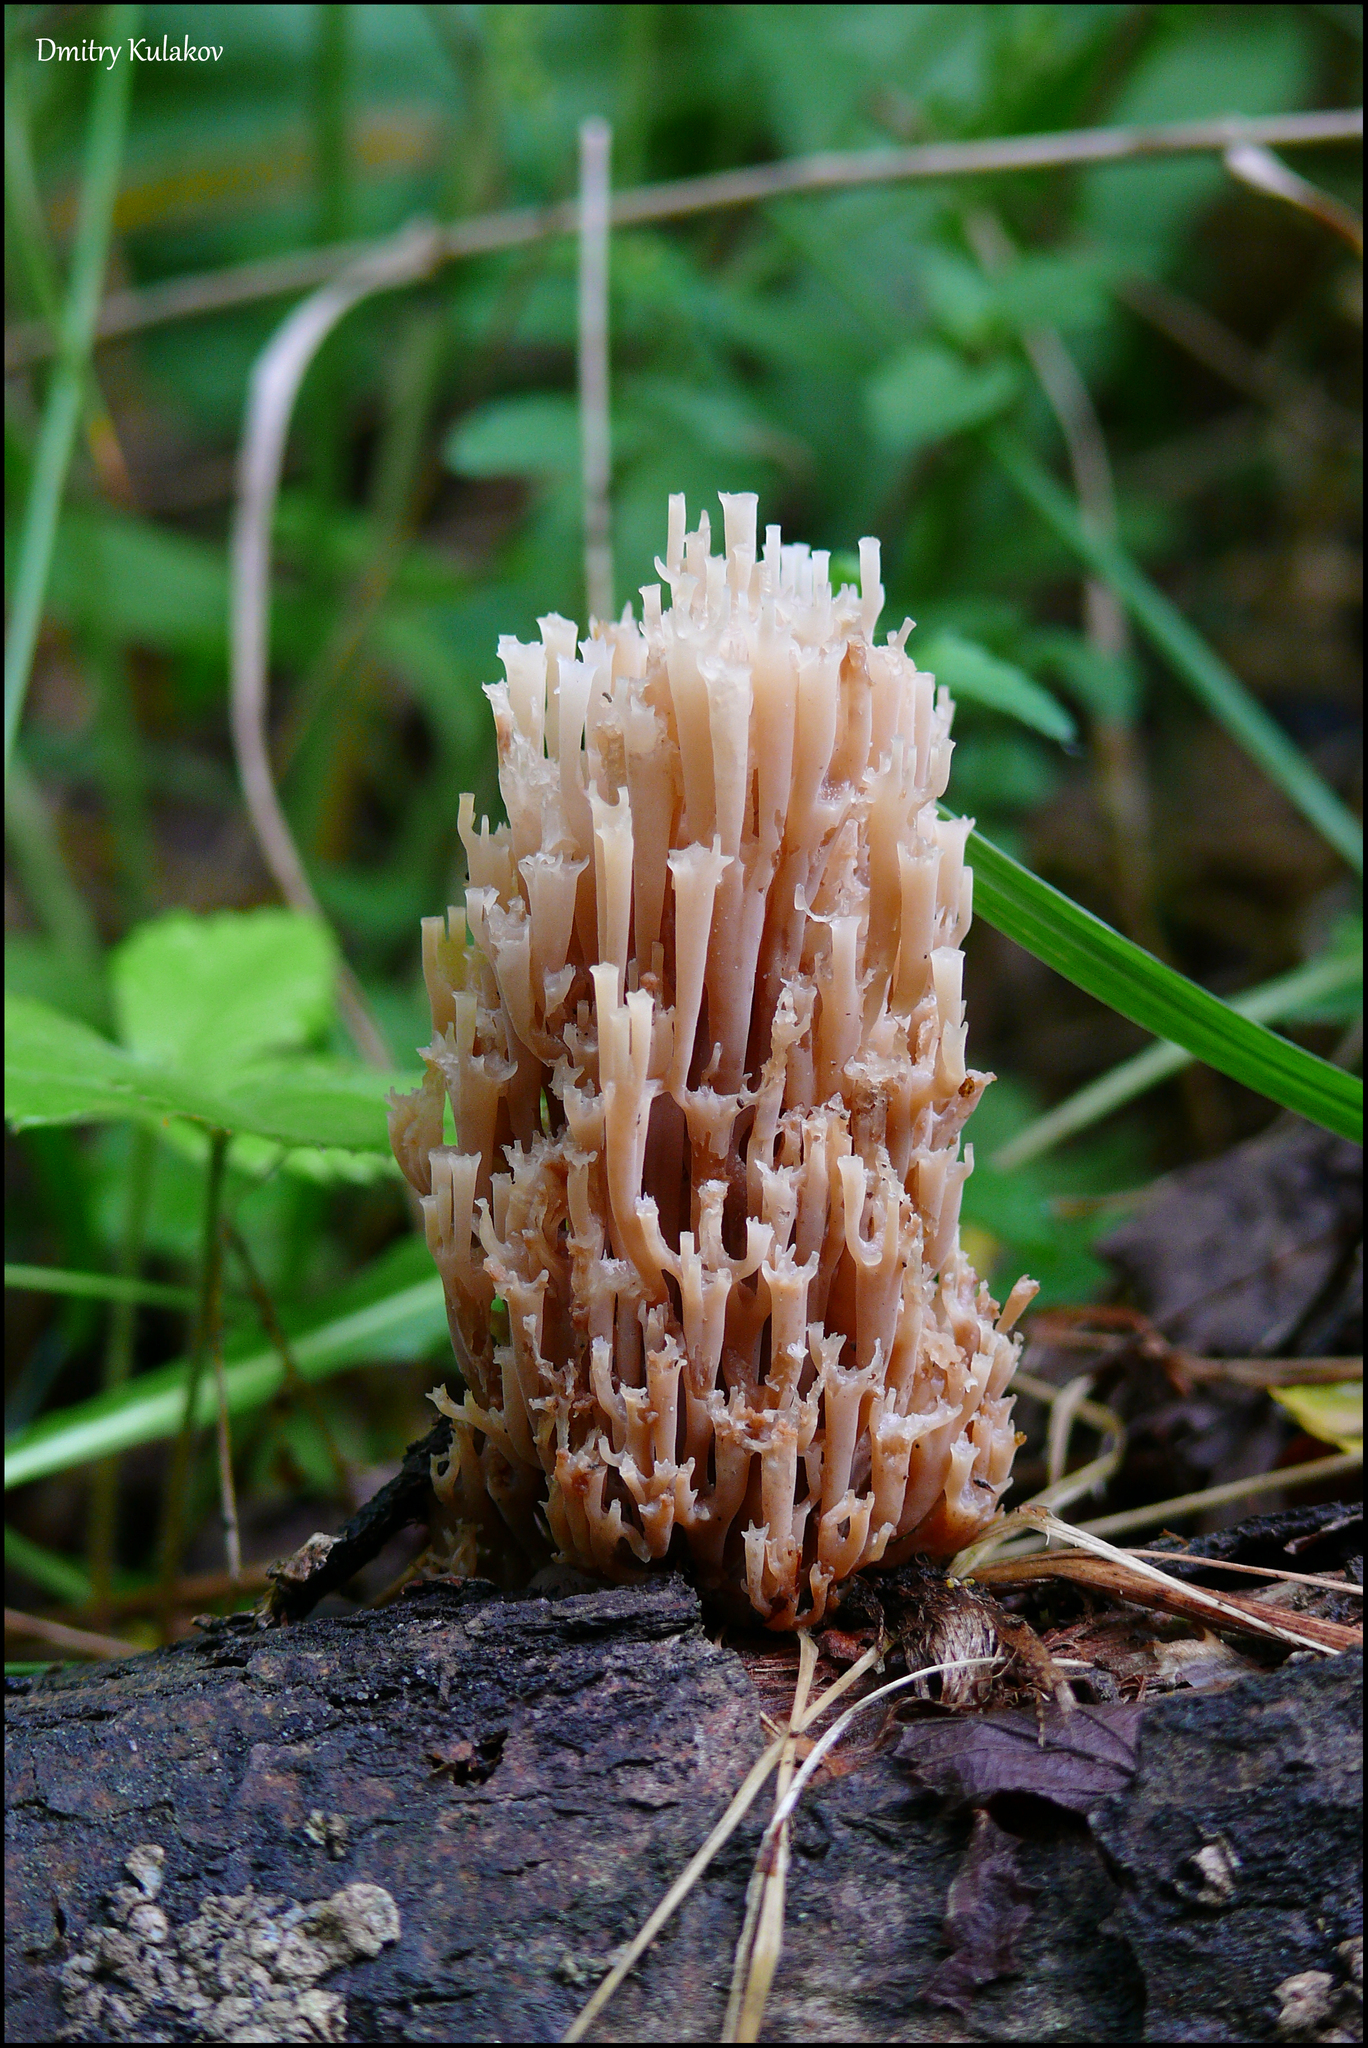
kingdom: Fungi
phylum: Basidiomycota
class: Agaricomycetes
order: Russulales
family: Auriscalpiaceae
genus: Artomyces
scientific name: Artomyces pyxidatus
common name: Crown-tipped coral fungus
